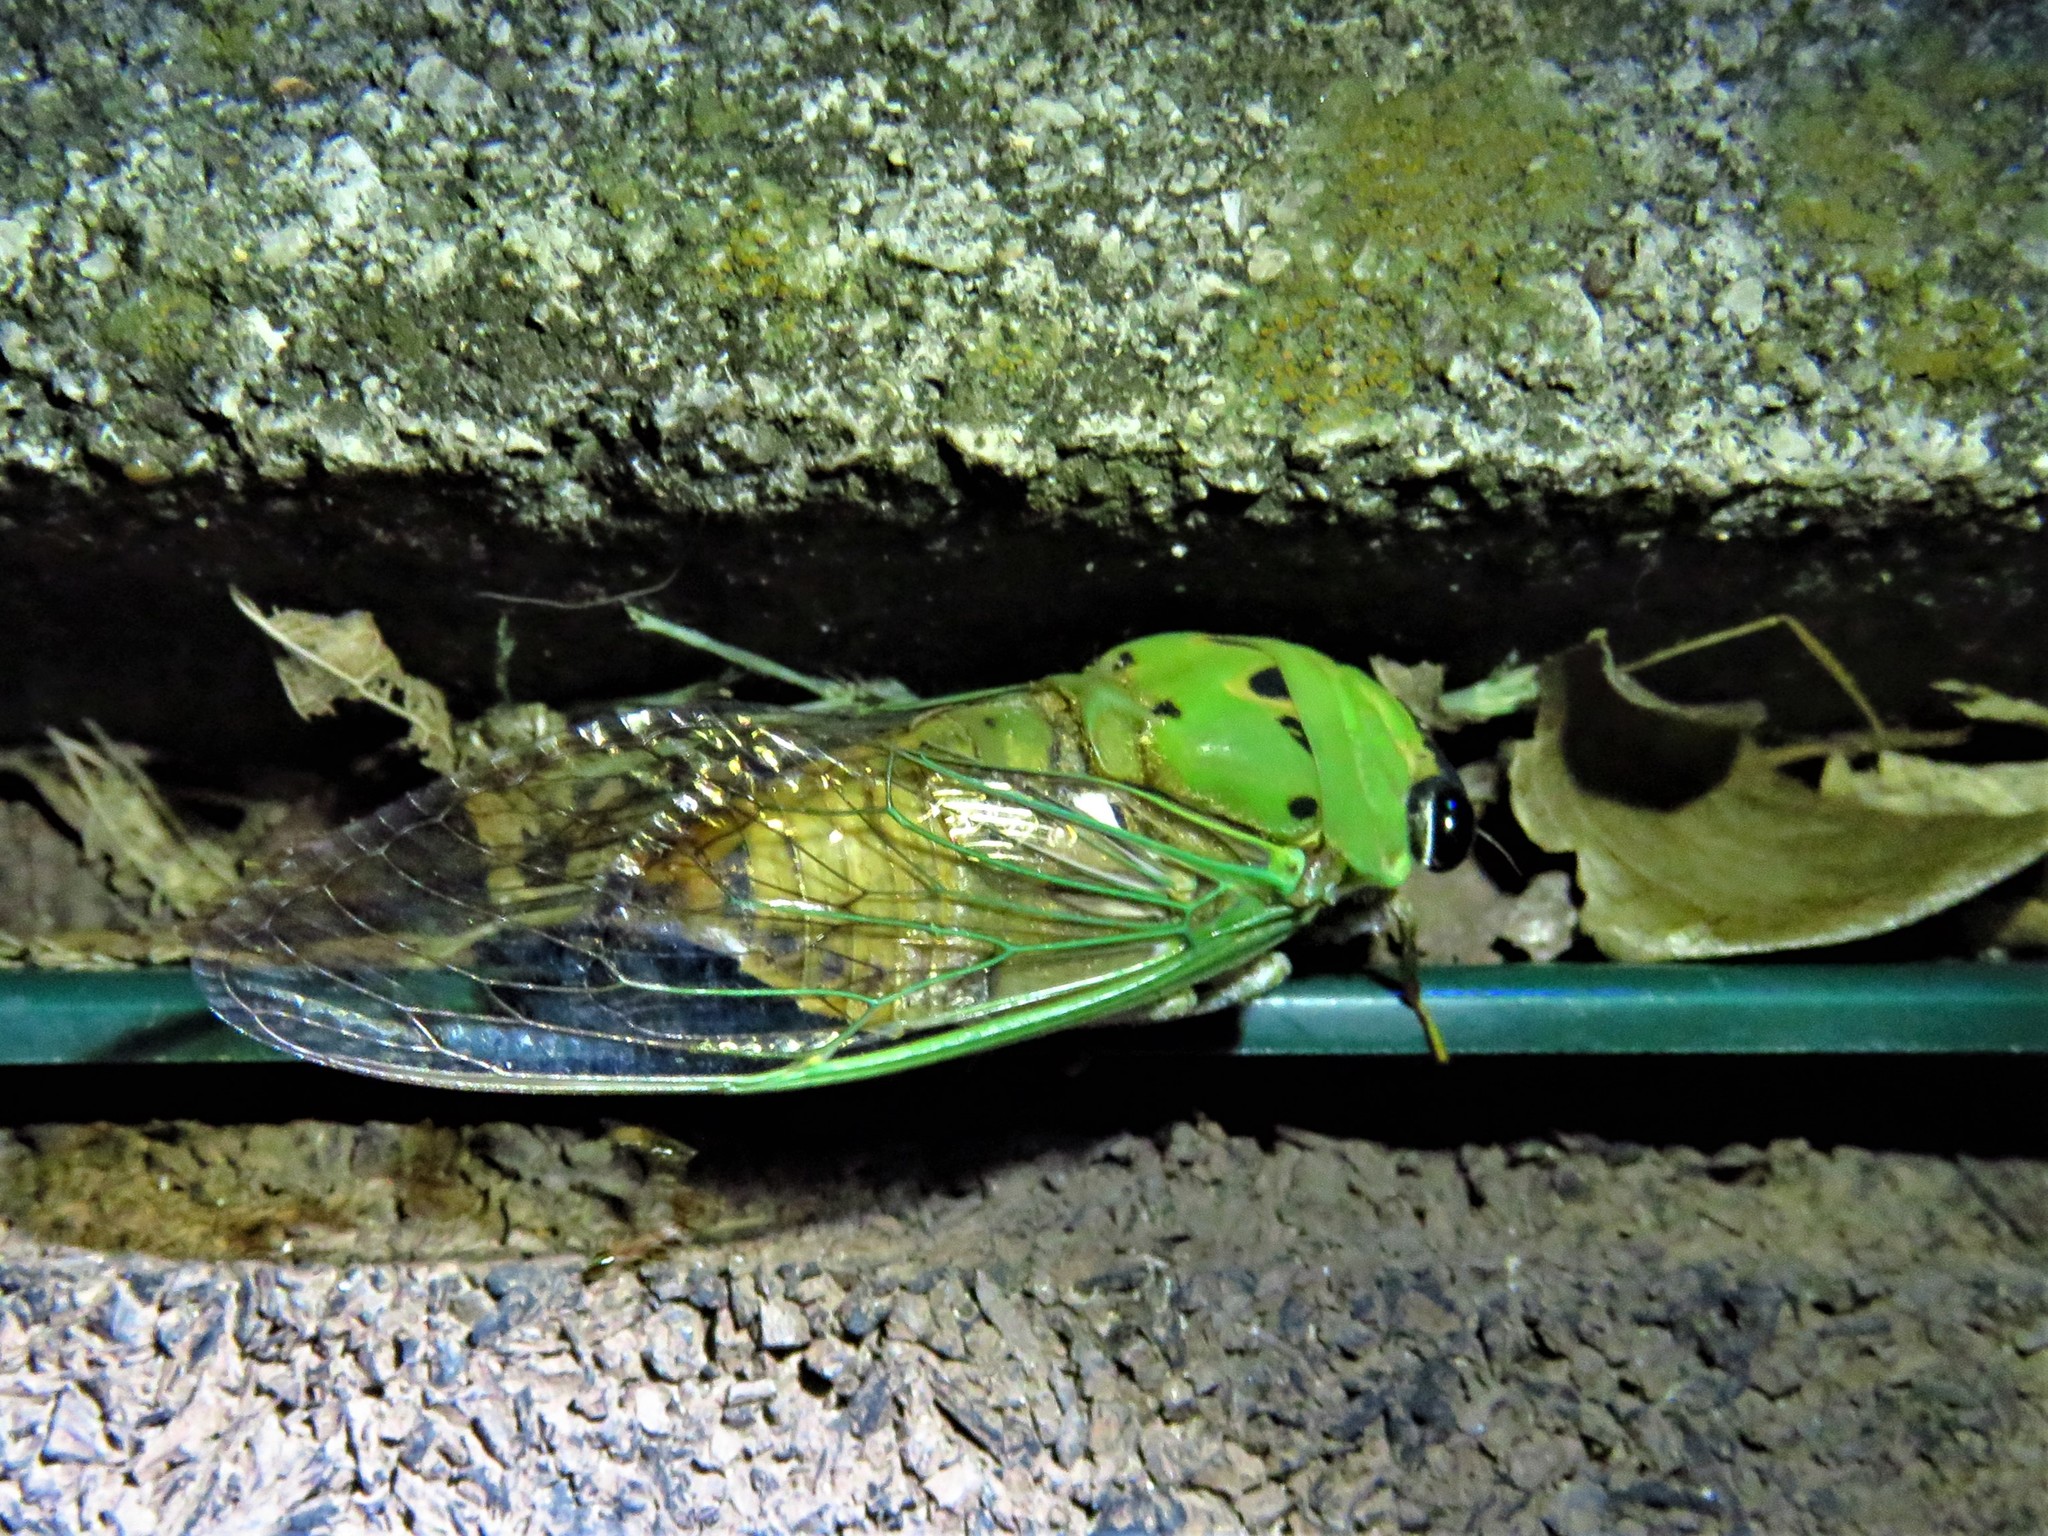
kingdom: Animalia
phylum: Arthropoda
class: Insecta
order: Hemiptera
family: Cicadidae
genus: Neotibicen
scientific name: Neotibicen superbus
